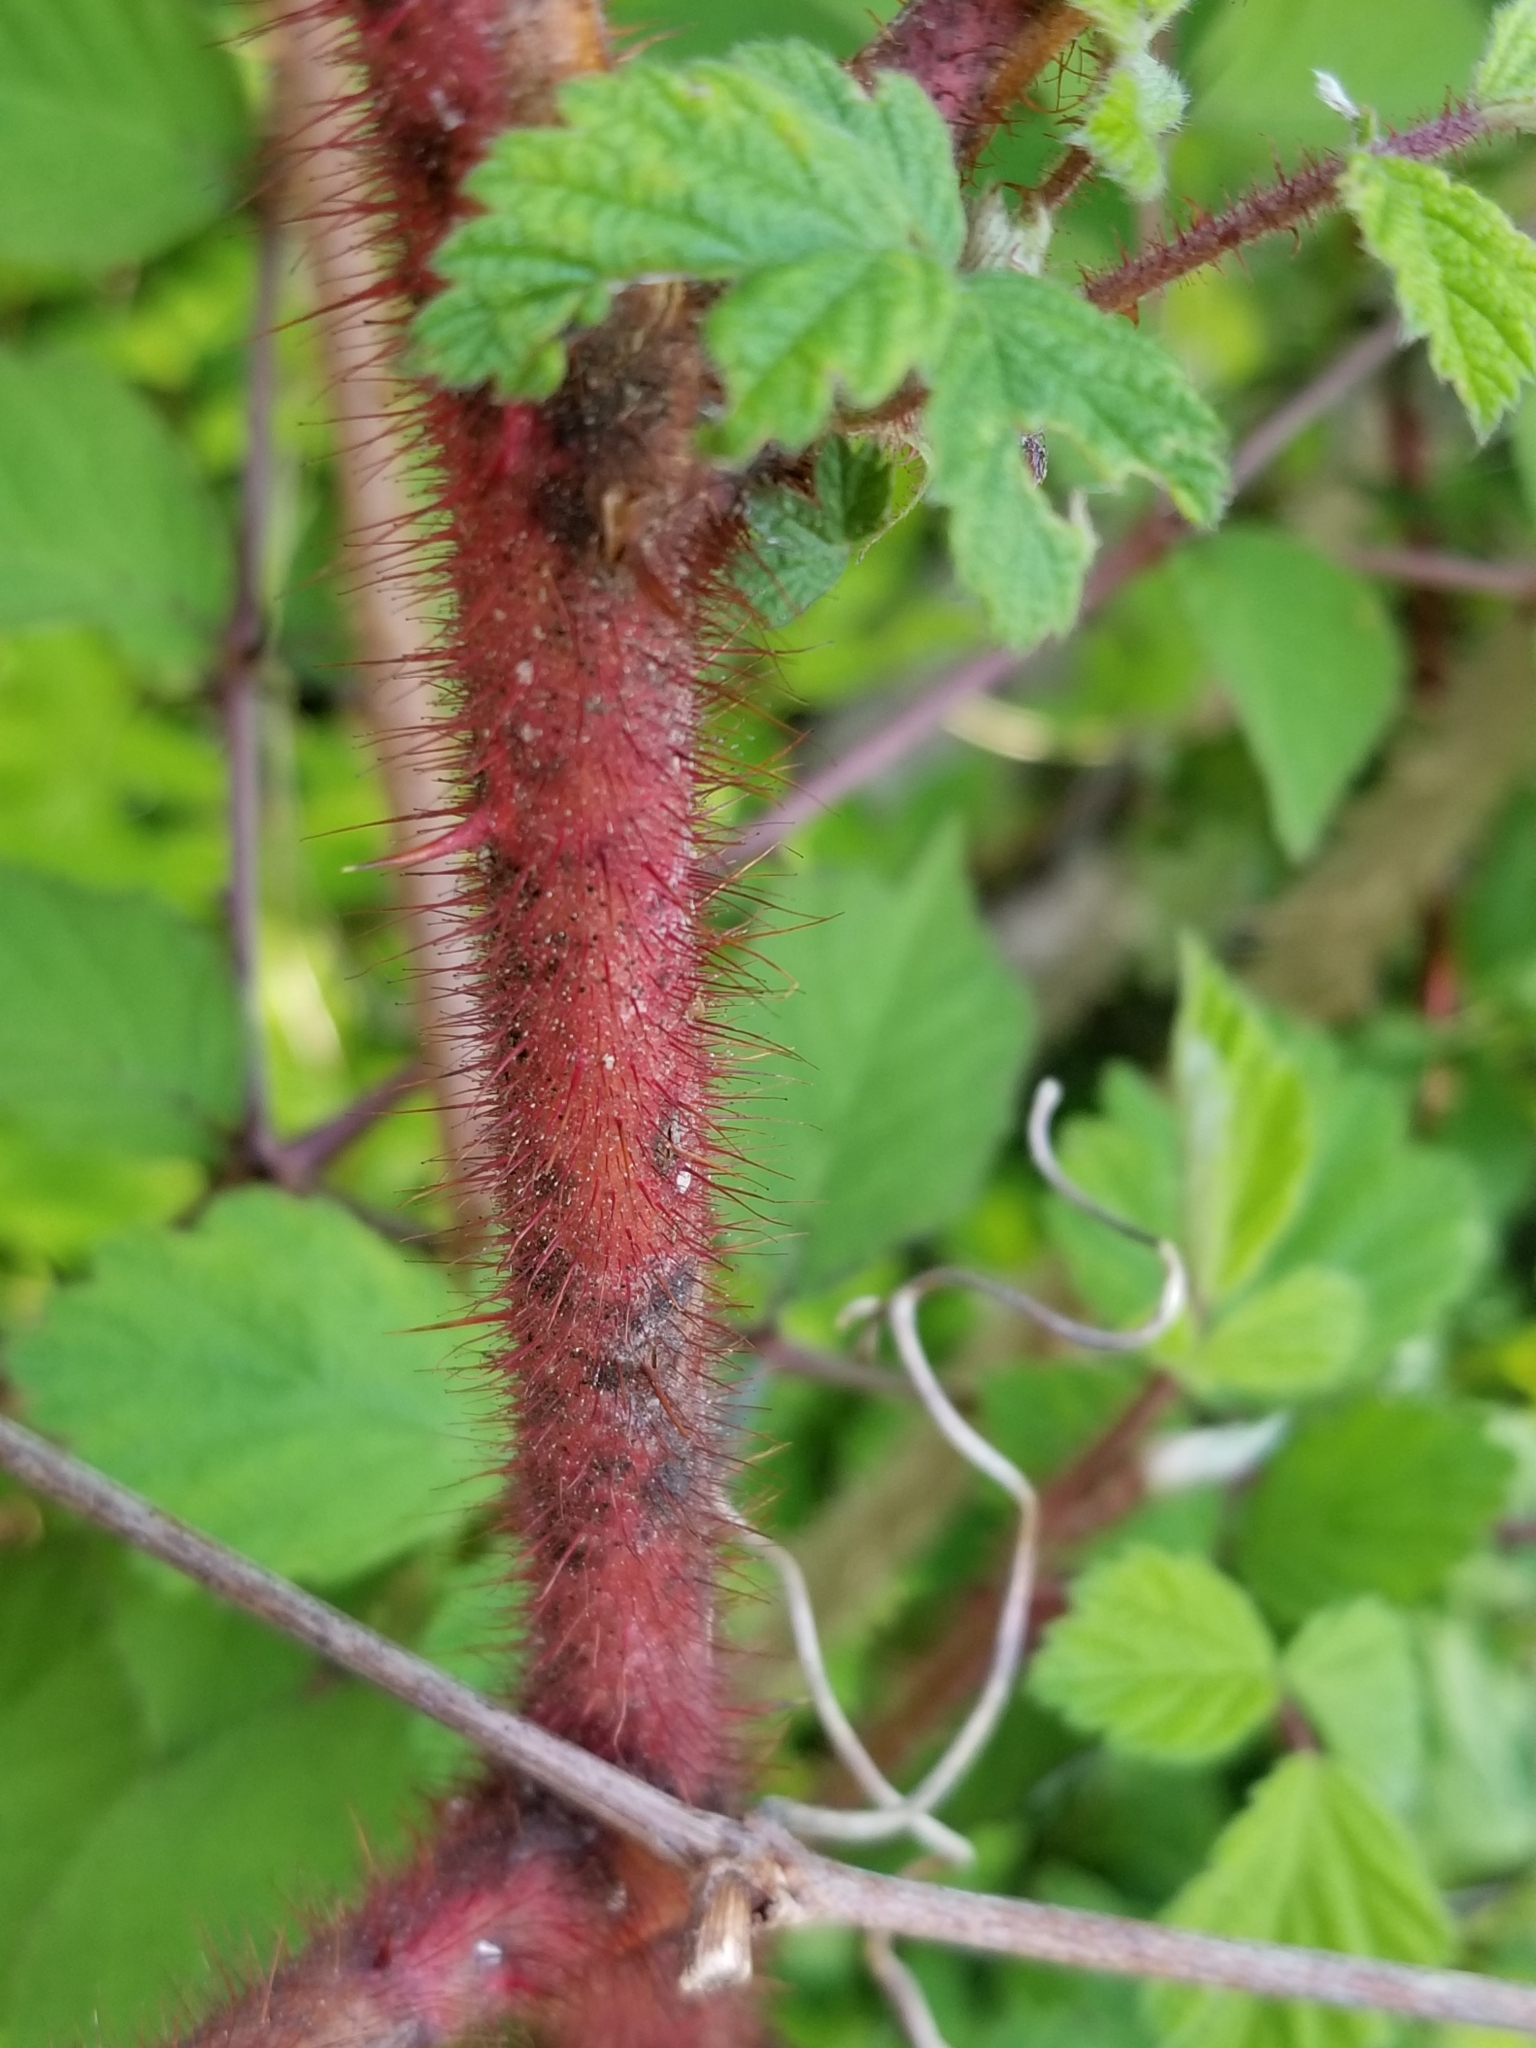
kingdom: Plantae
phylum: Tracheophyta
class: Magnoliopsida
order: Rosales
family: Rosaceae
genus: Rubus
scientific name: Rubus phoenicolasius
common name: Japanese wineberry
